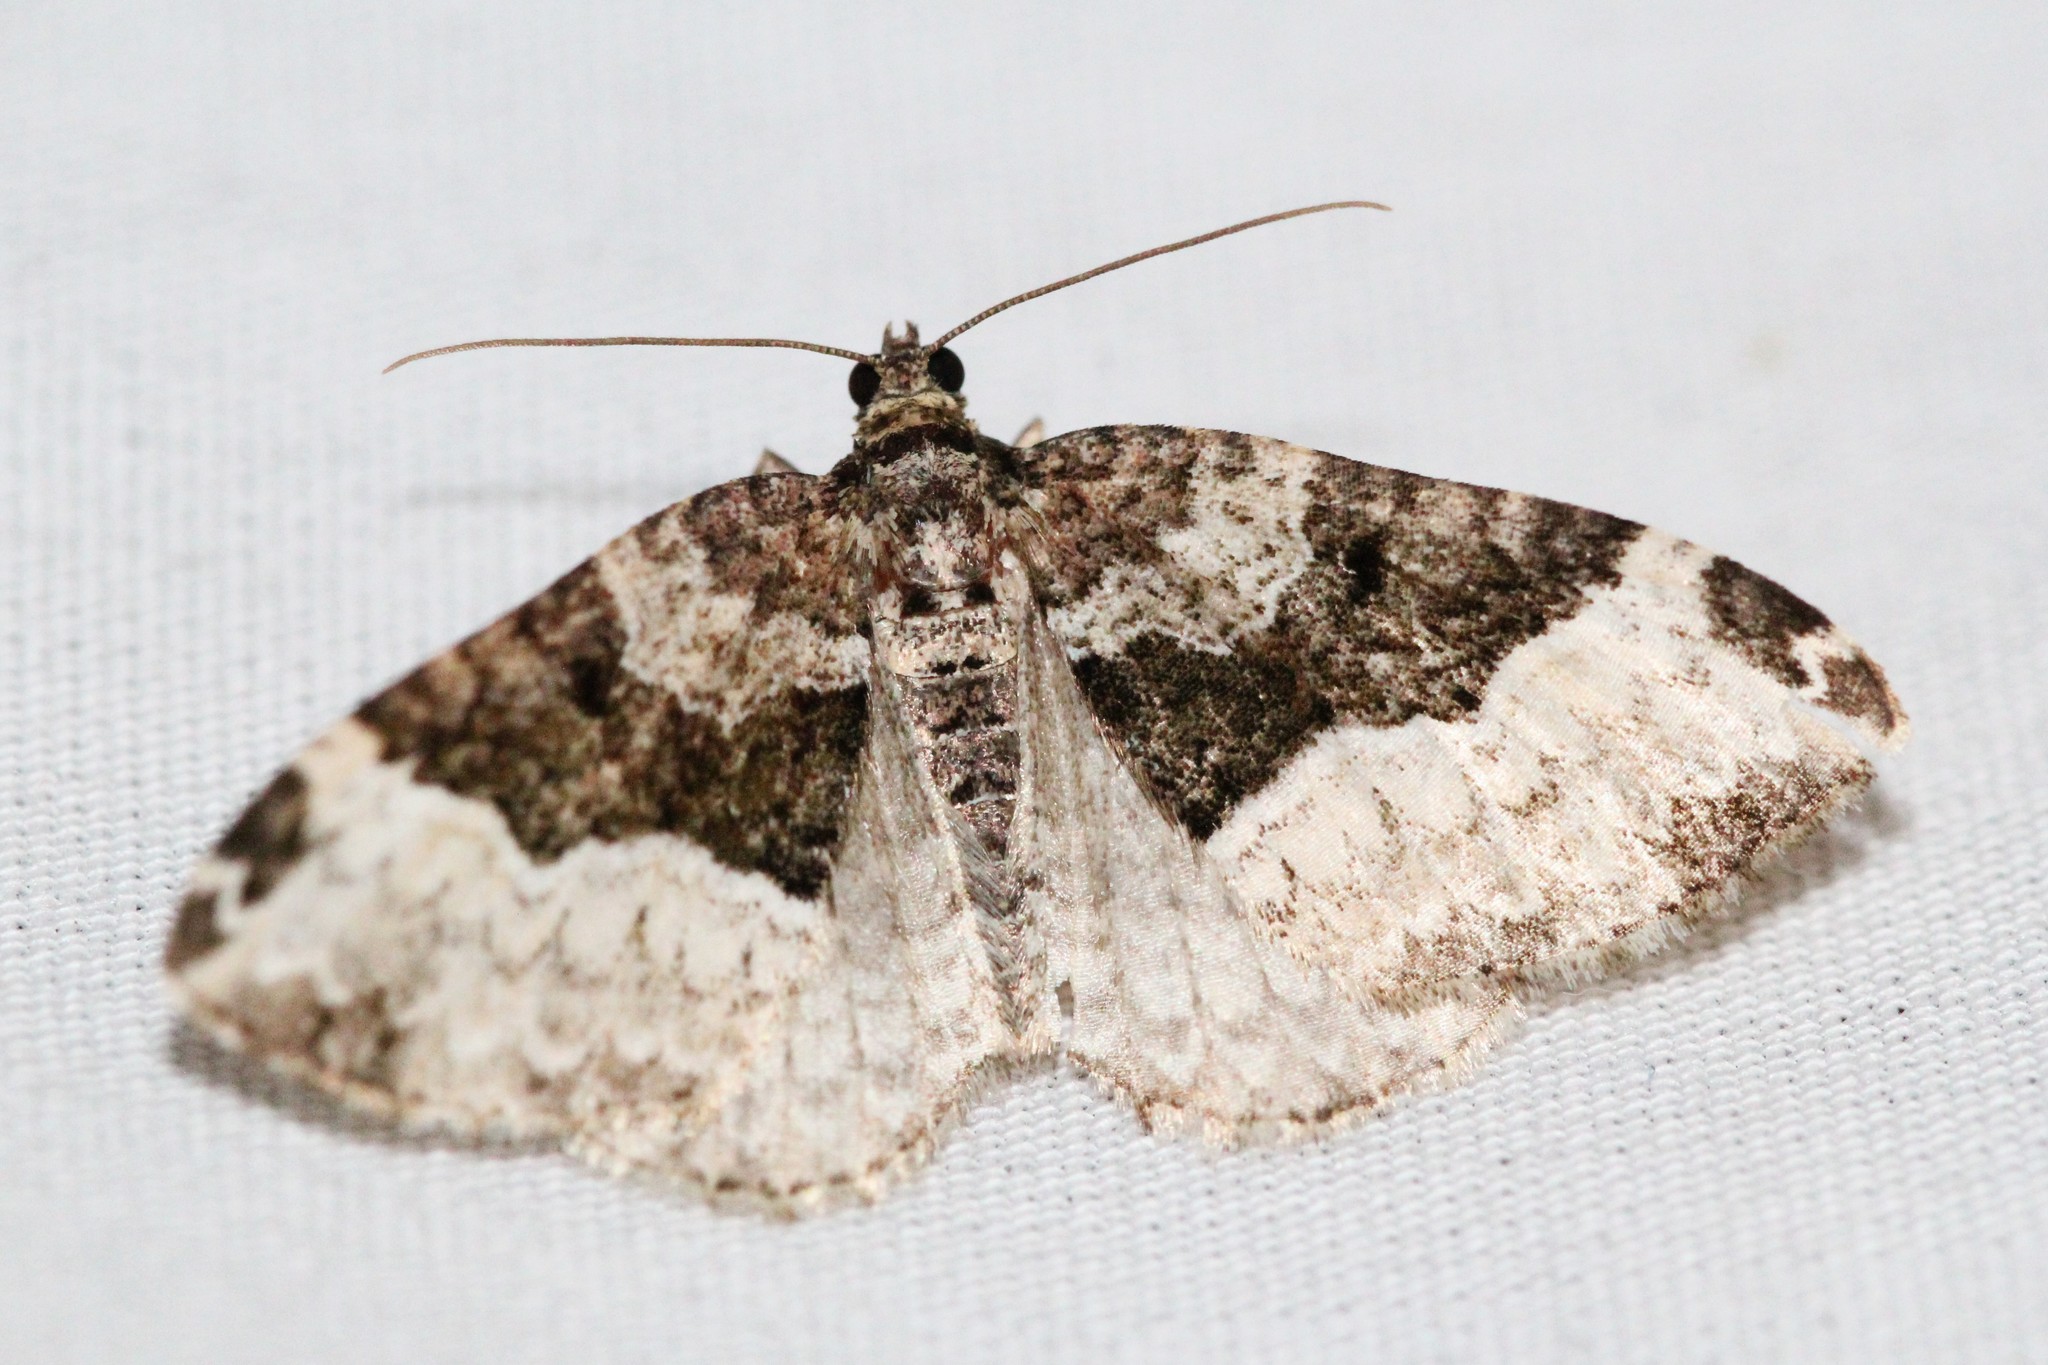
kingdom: Animalia
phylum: Arthropoda
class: Insecta
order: Lepidoptera
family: Geometridae
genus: Euphyia
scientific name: Euphyia intermediata
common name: Sharp-angled carpet
